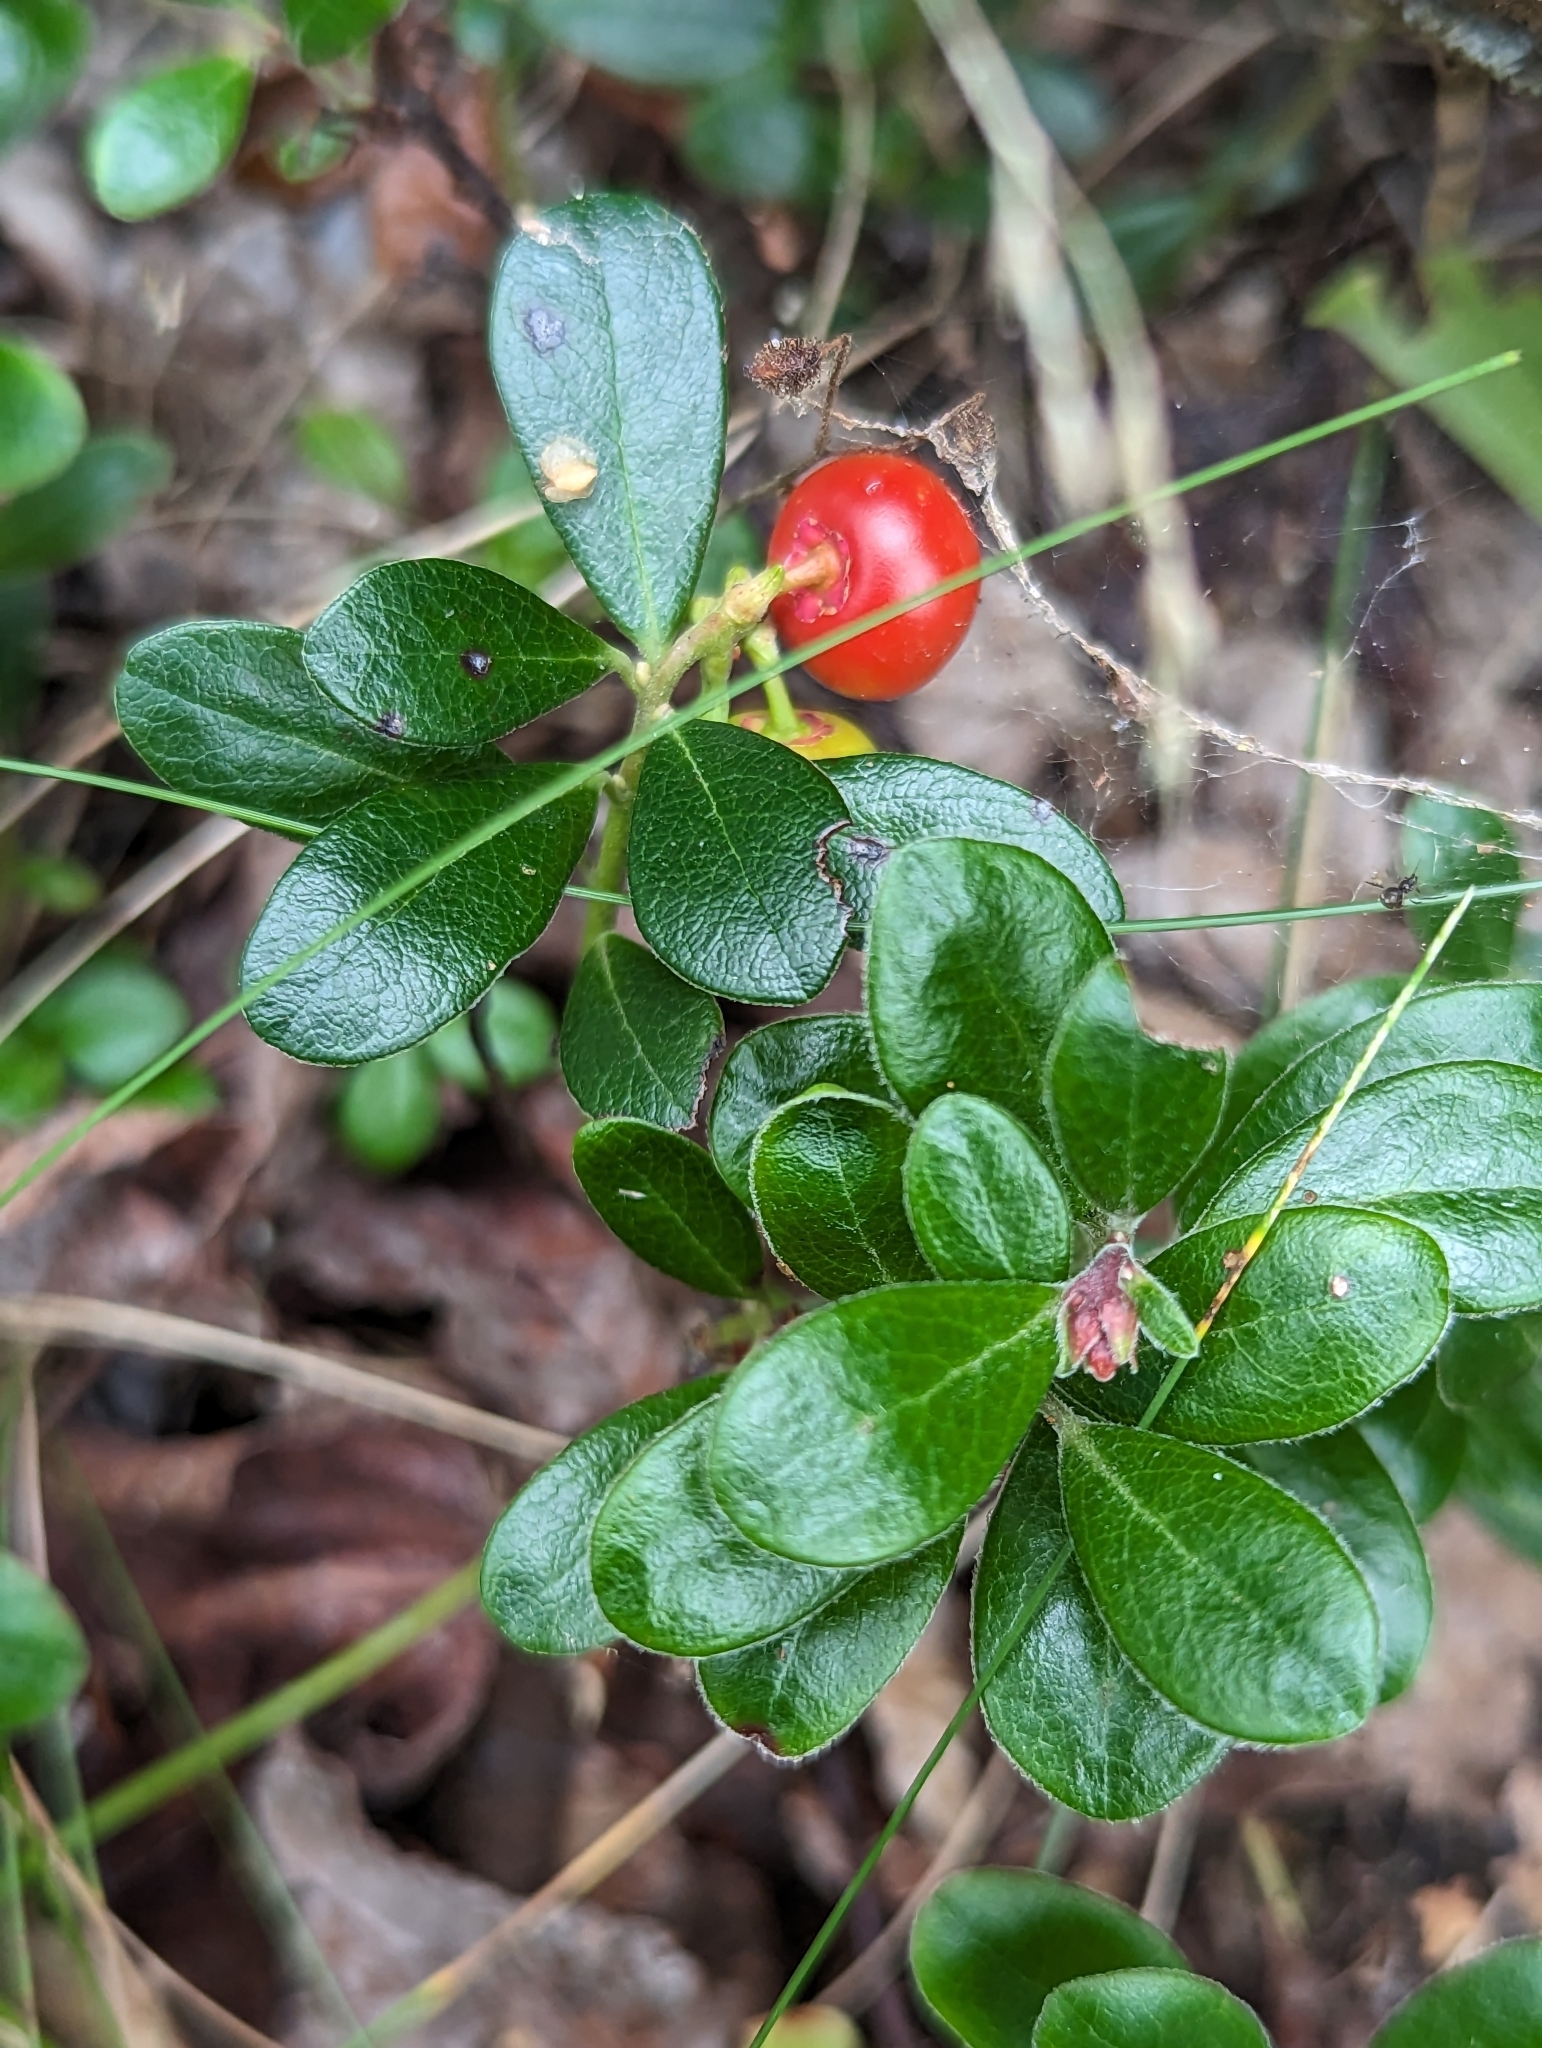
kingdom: Plantae
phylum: Tracheophyta
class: Magnoliopsida
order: Ericales
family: Ericaceae
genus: Arctostaphylos
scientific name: Arctostaphylos uva-ursi
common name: Bearberry
